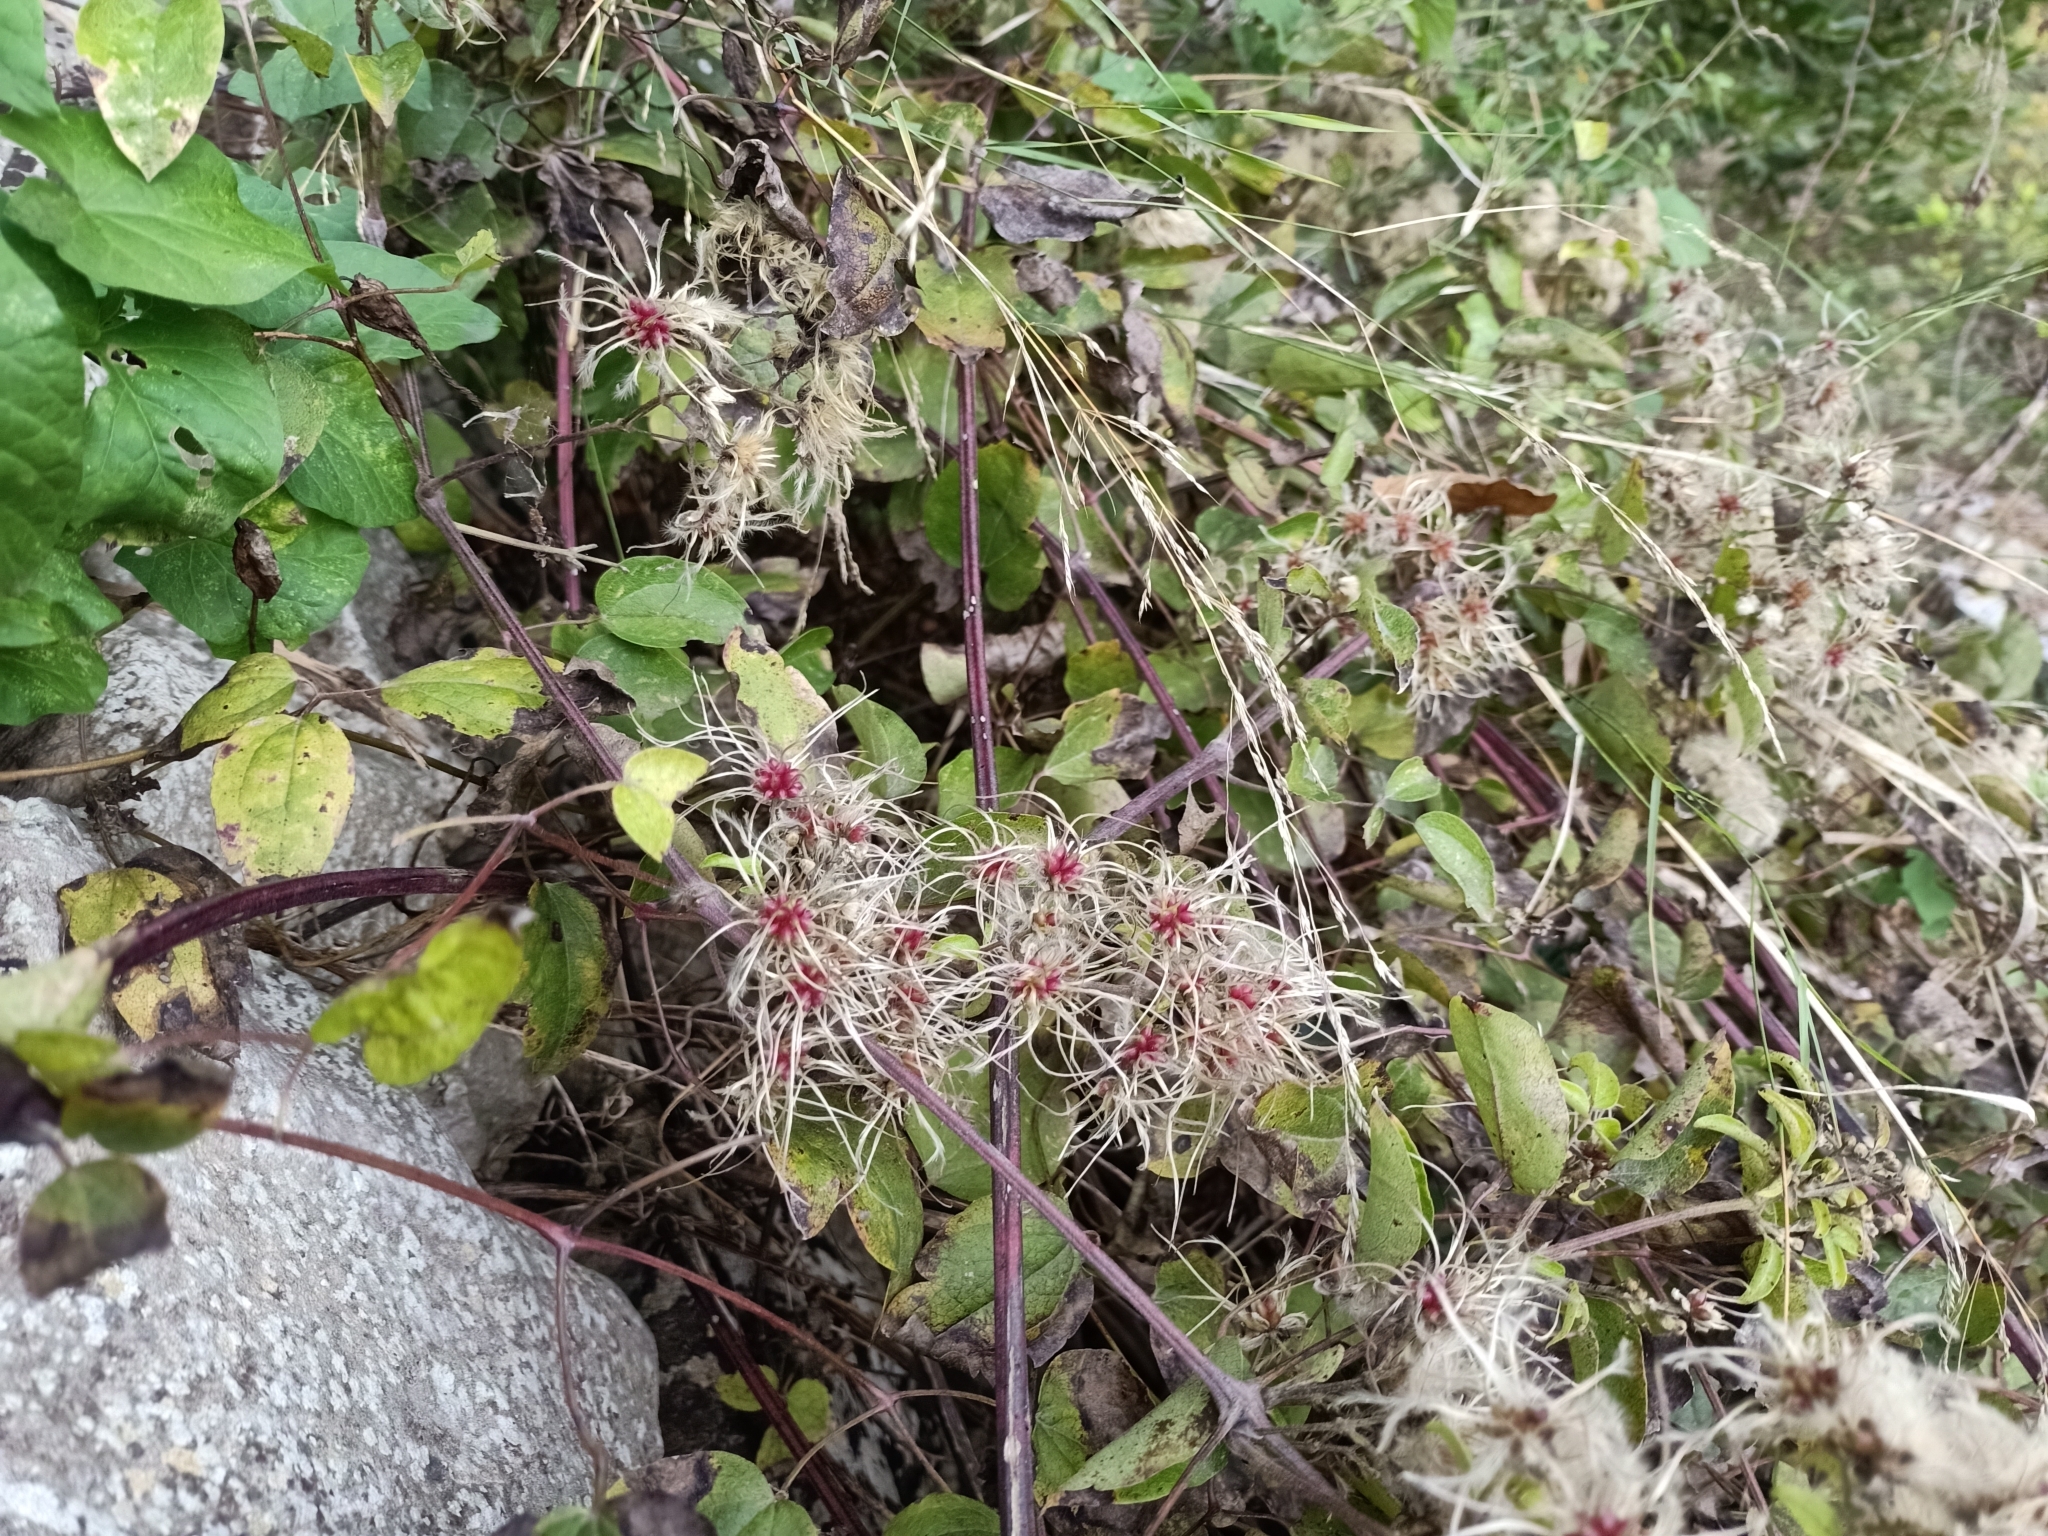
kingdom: Plantae
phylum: Tracheophyta
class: Magnoliopsida
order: Ranunculales
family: Ranunculaceae
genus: Clematis
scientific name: Clematis vitalba
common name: Evergreen clematis
